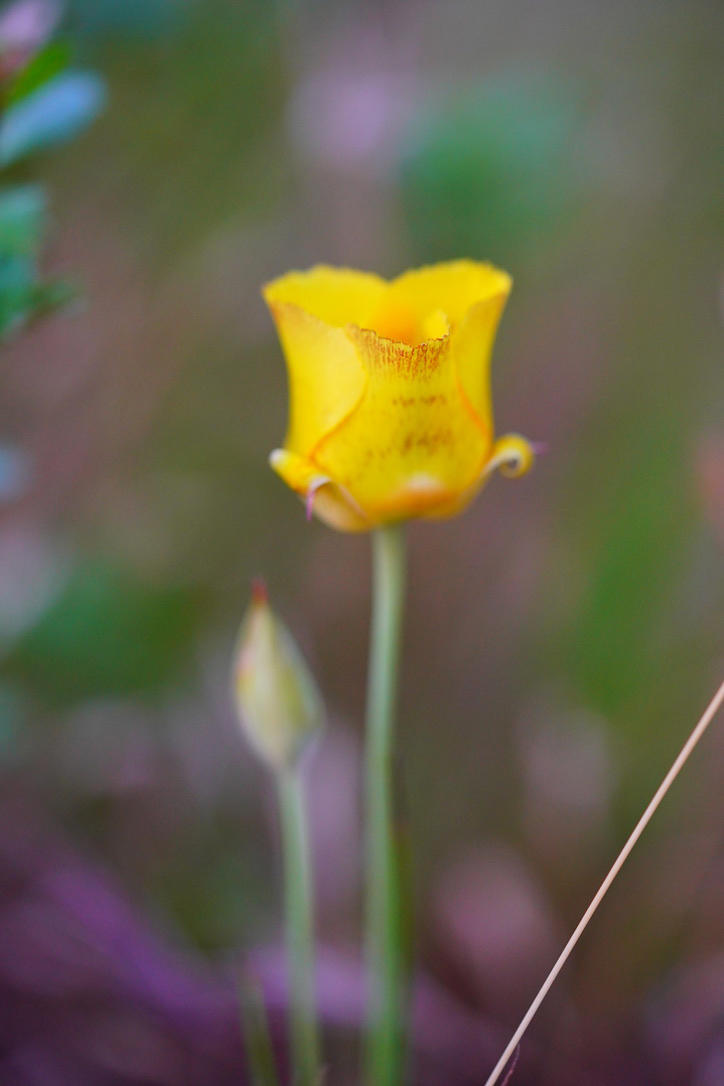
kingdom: Plantae
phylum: Tracheophyta
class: Liliopsida
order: Liliales
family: Liliaceae
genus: Calochortus
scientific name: Calochortus luteus
